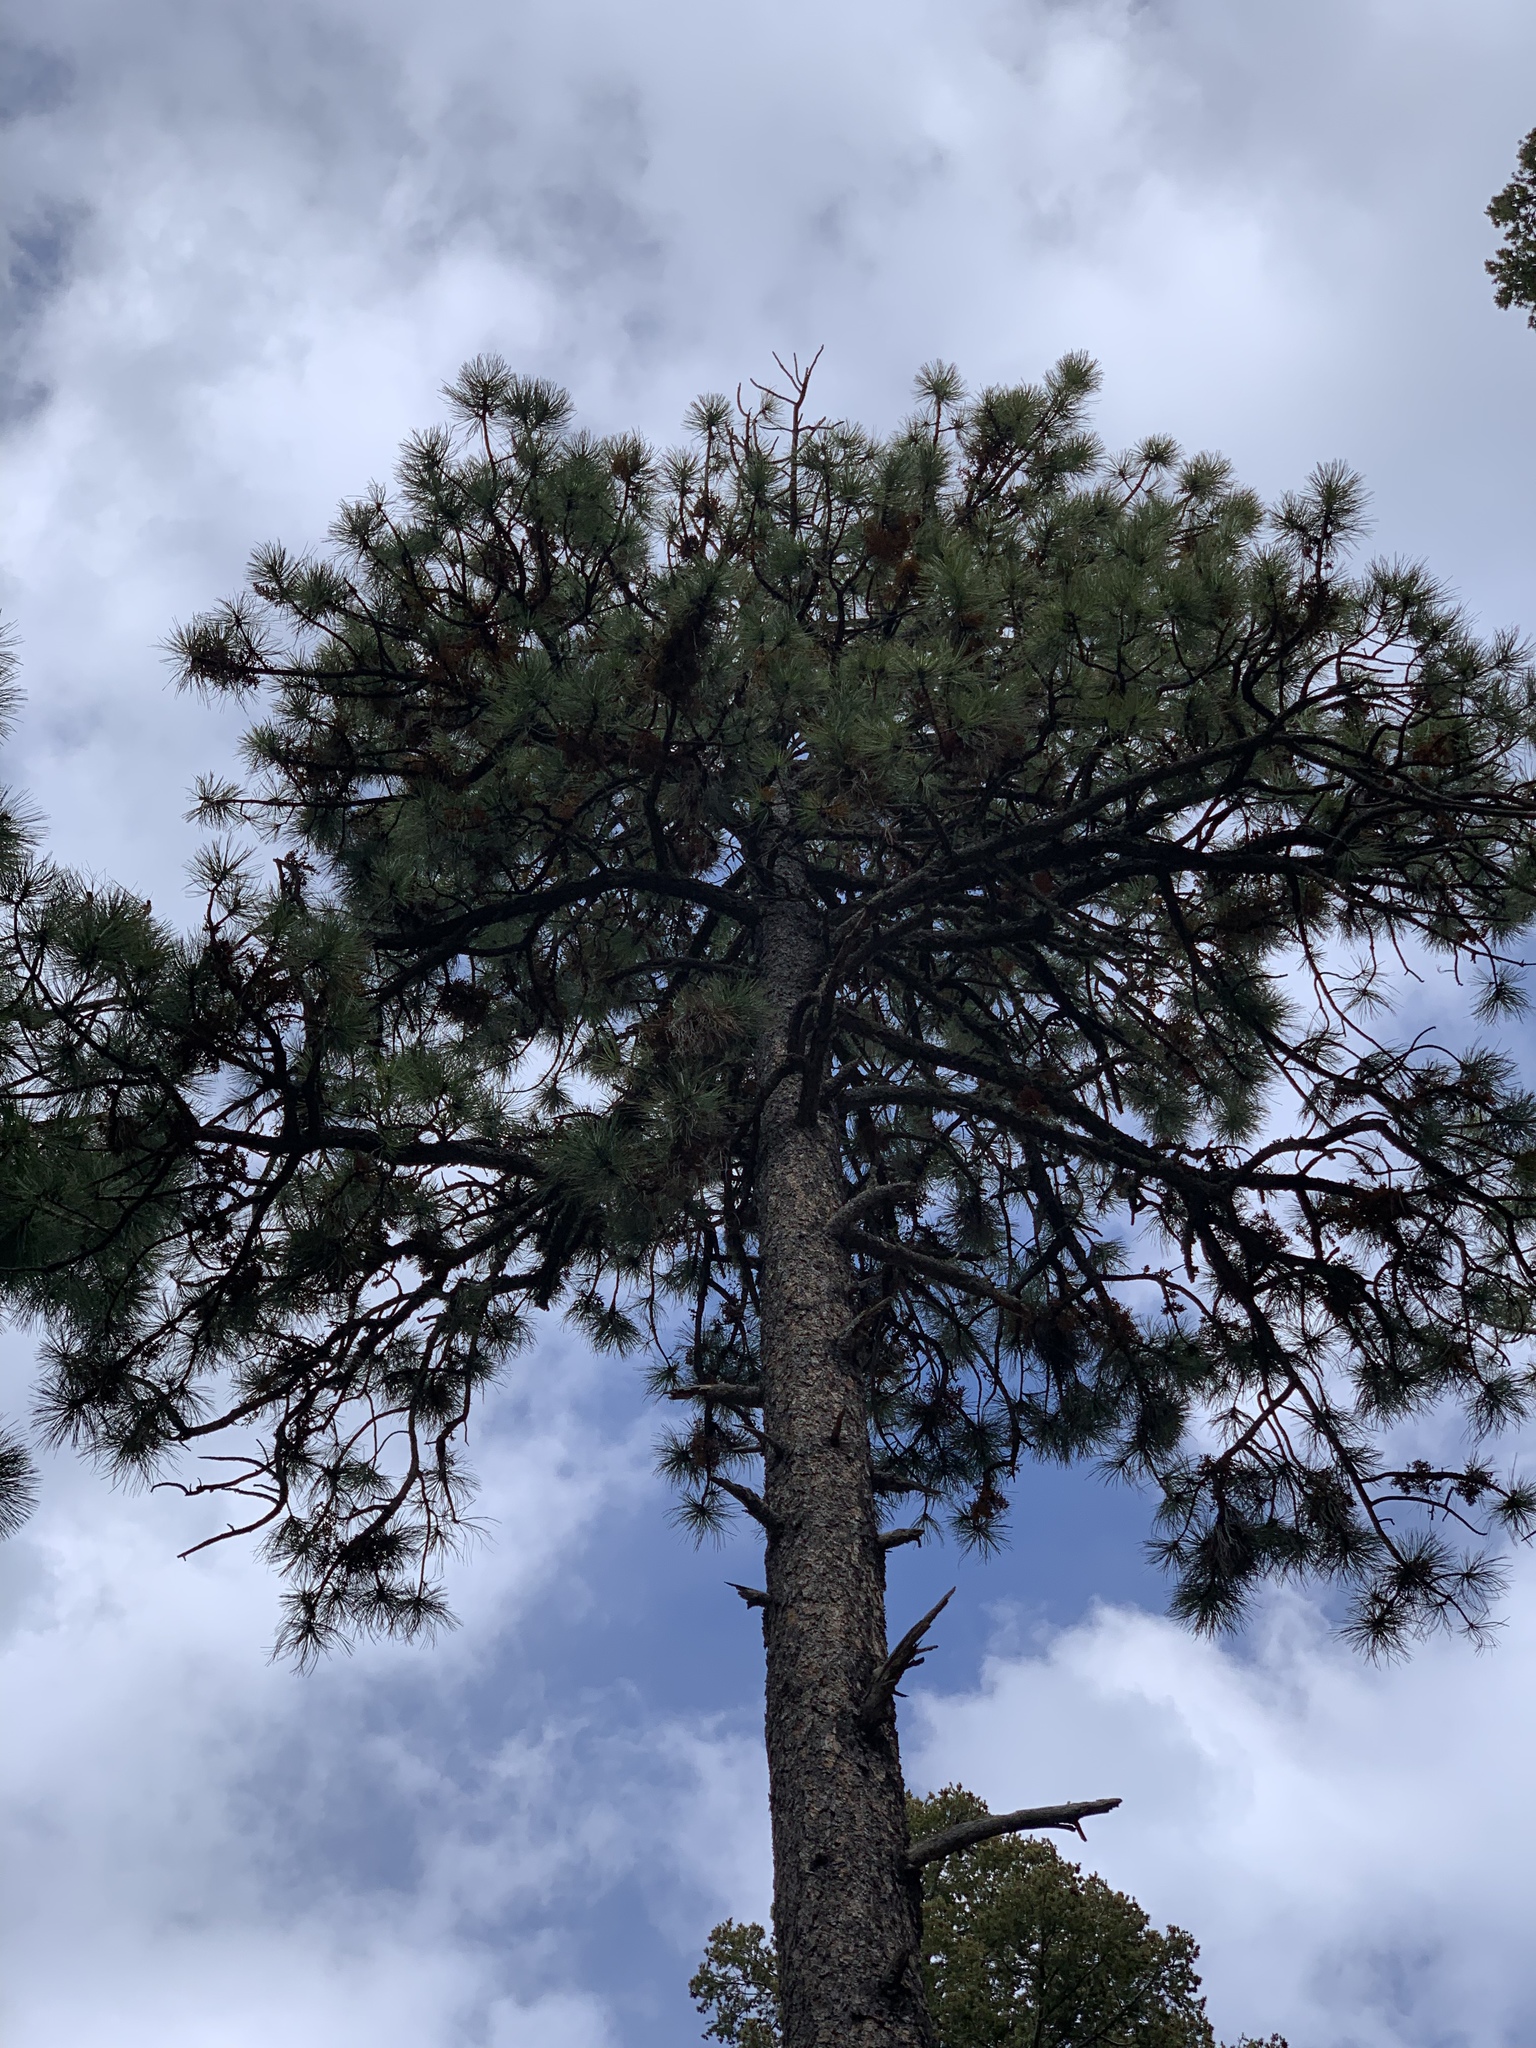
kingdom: Plantae
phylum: Tracheophyta
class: Pinopsida
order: Pinales
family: Pinaceae
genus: Pinus
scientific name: Pinus ponderosa
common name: Western yellow-pine
